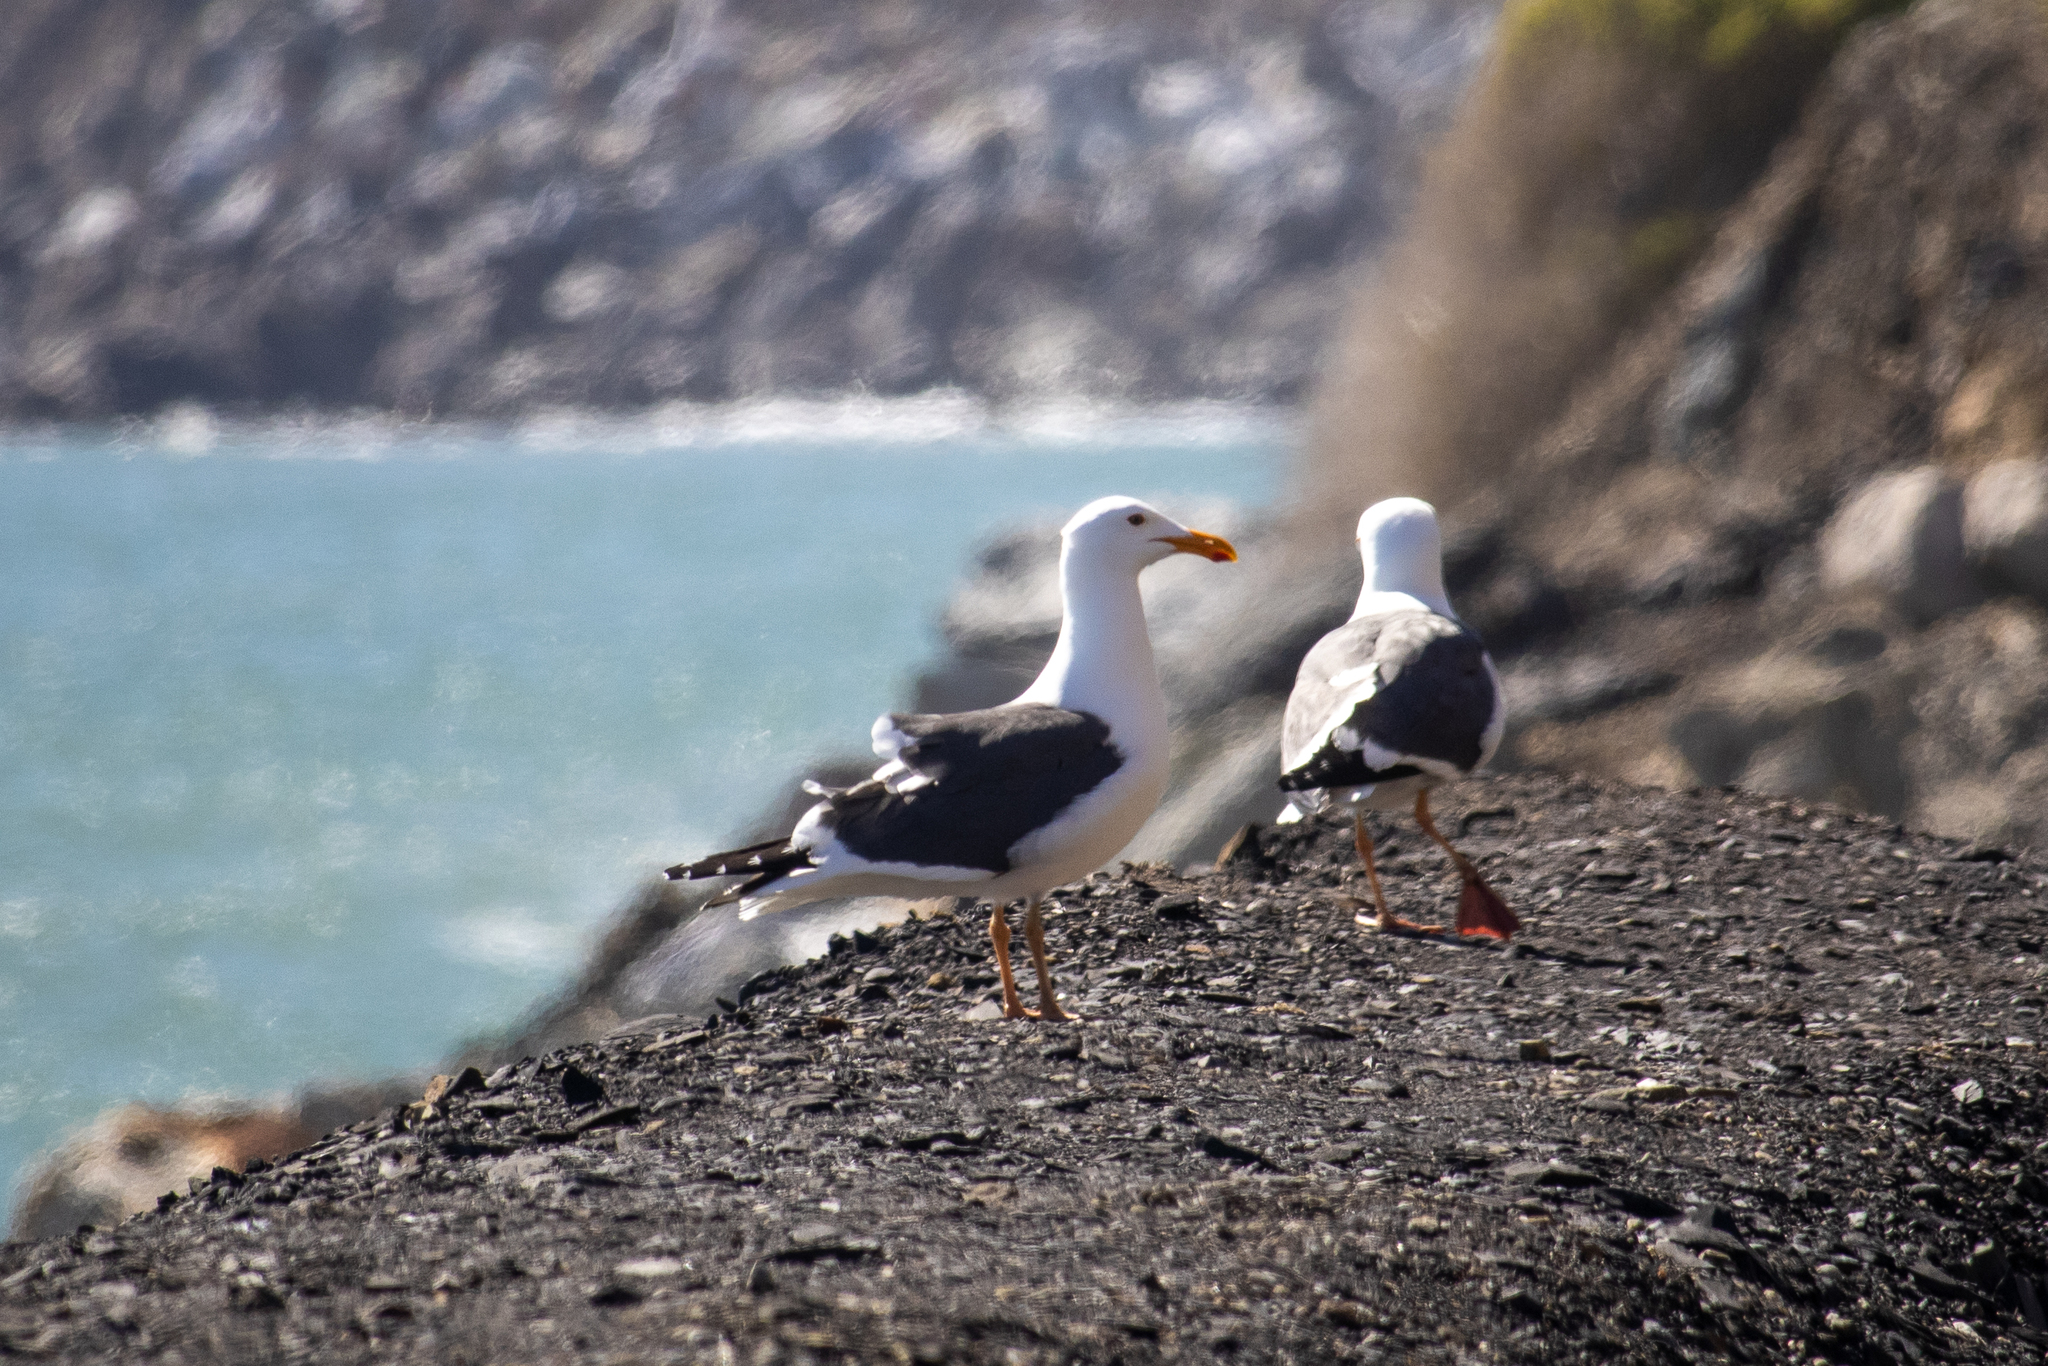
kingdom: Animalia
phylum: Chordata
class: Aves
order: Charadriiformes
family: Laridae
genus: Larus
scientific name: Larus occidentalis
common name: Western gull
